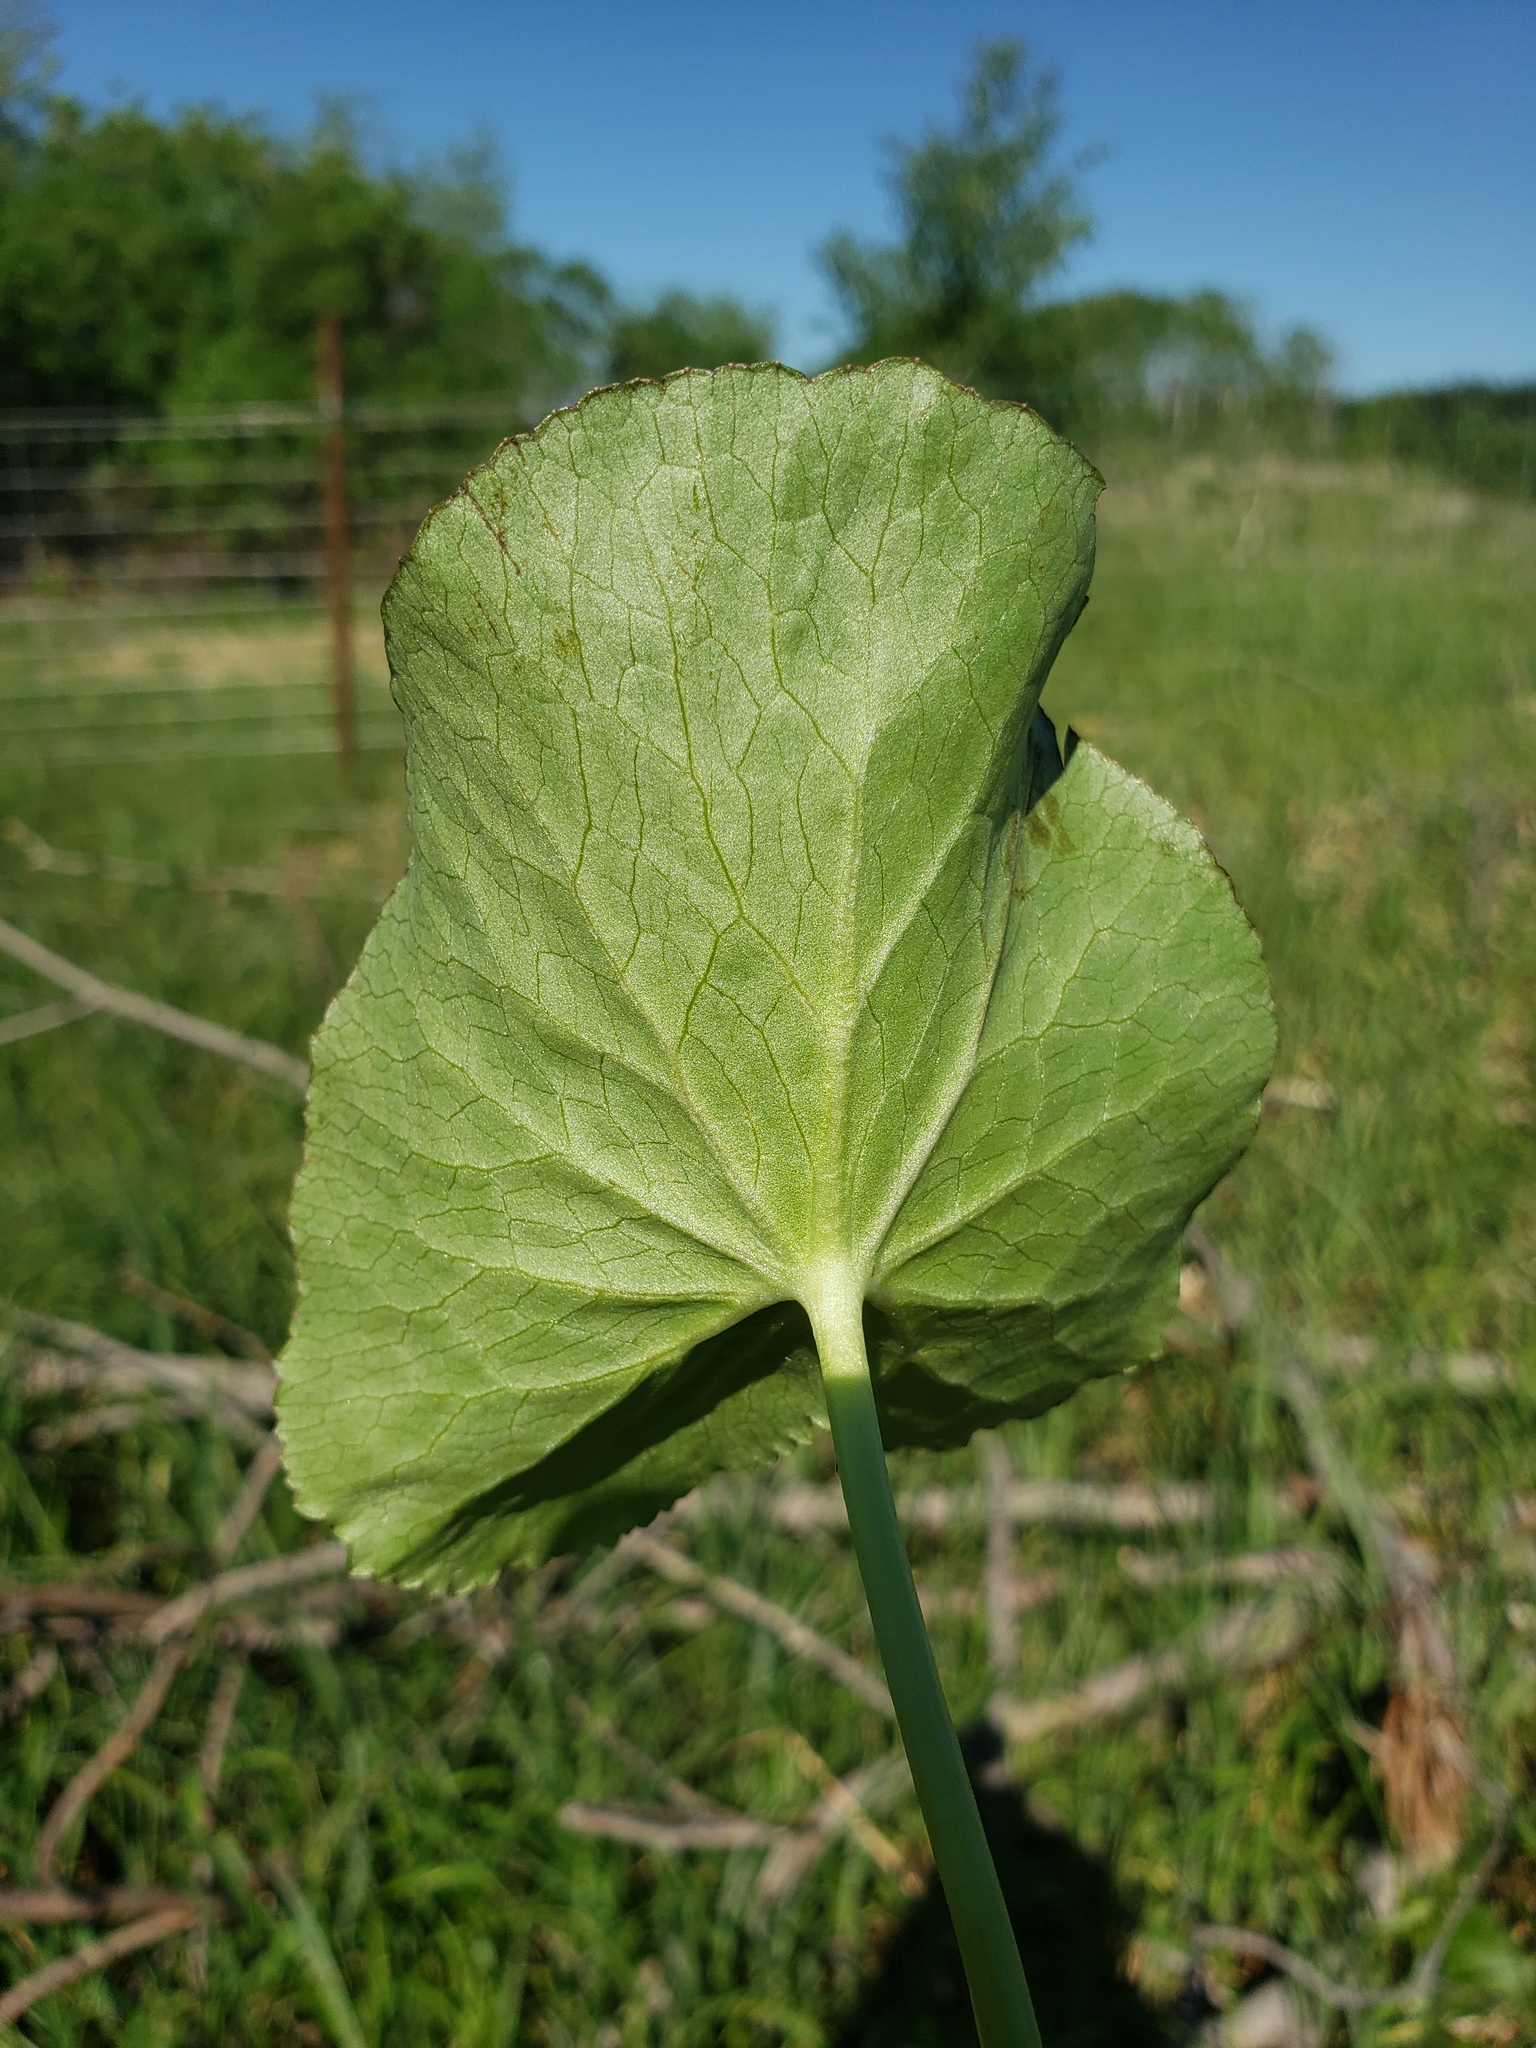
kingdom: Plantae
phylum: Tracheophyta
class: Magnoliopsida
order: Ranunculales
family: Ranunculaceae
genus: Caltha
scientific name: Caltha palustris
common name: Marsh marigold
